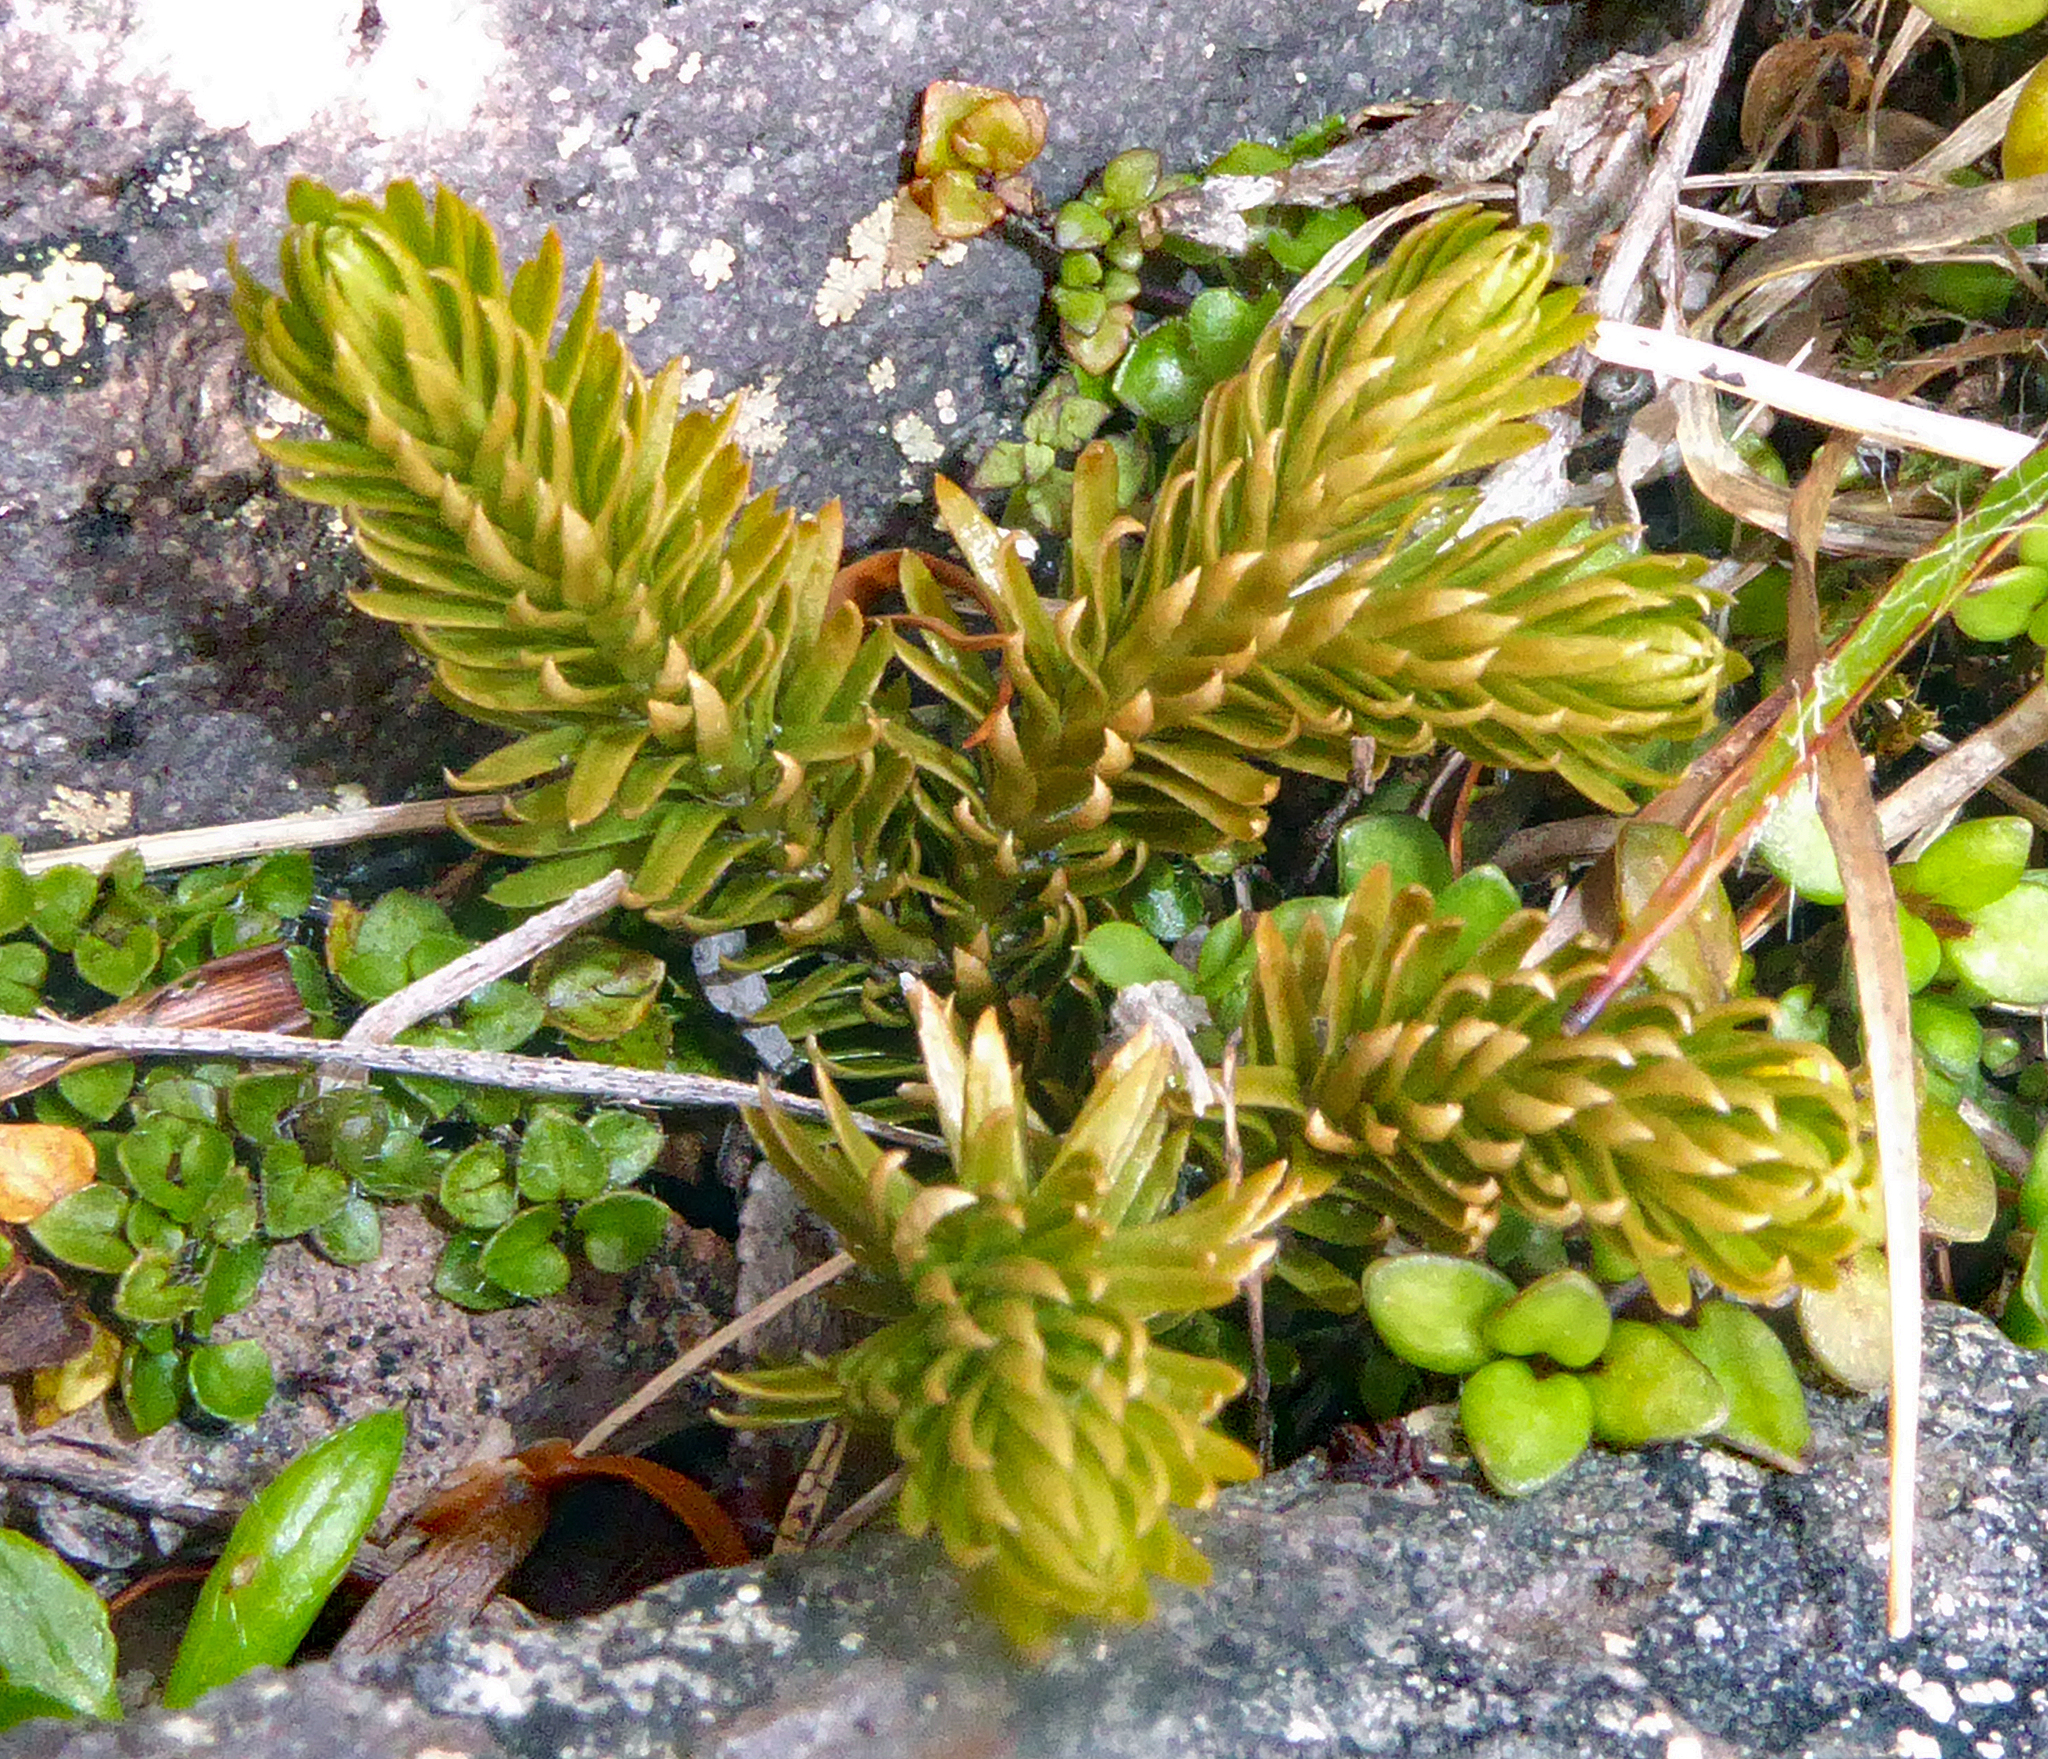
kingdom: Plantae
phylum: Tracheophyta
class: Lycopodiopsida
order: Lycopodiales
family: Lycopodiaceae
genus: Huperzia
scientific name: Huperzia australiana
